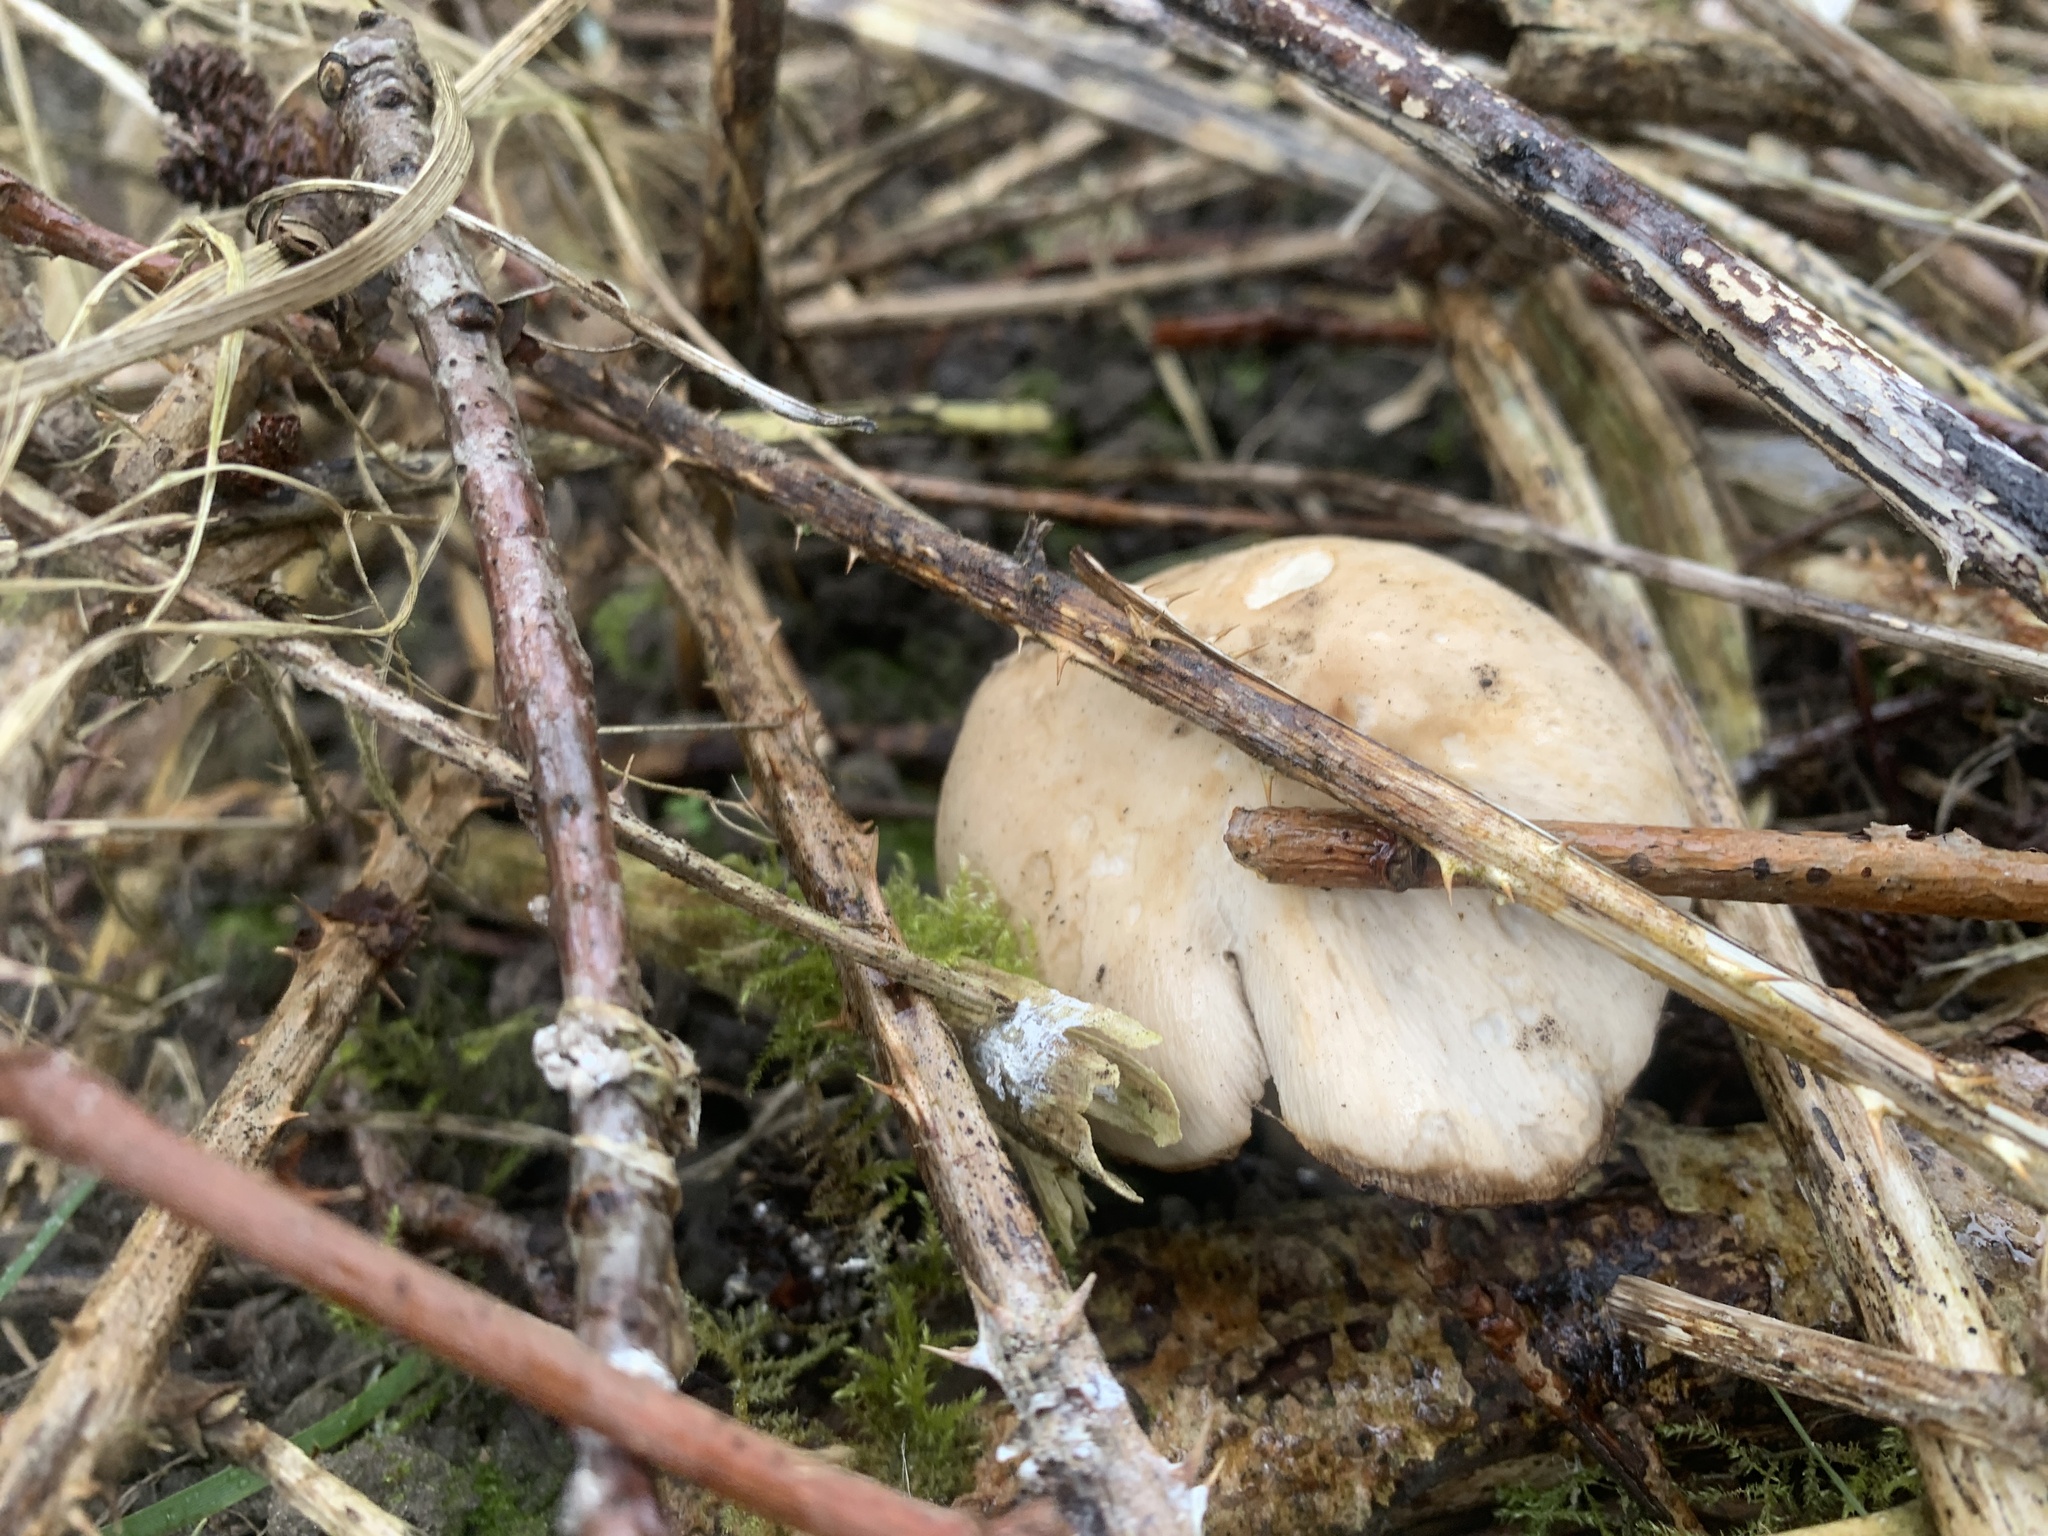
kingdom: Fungi
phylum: Basidiomycota
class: Agaricomycetes
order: Agaricales
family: Lyophyllaceae
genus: Calocybe
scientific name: Calocybe gambosa
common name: St. george's mushroom
